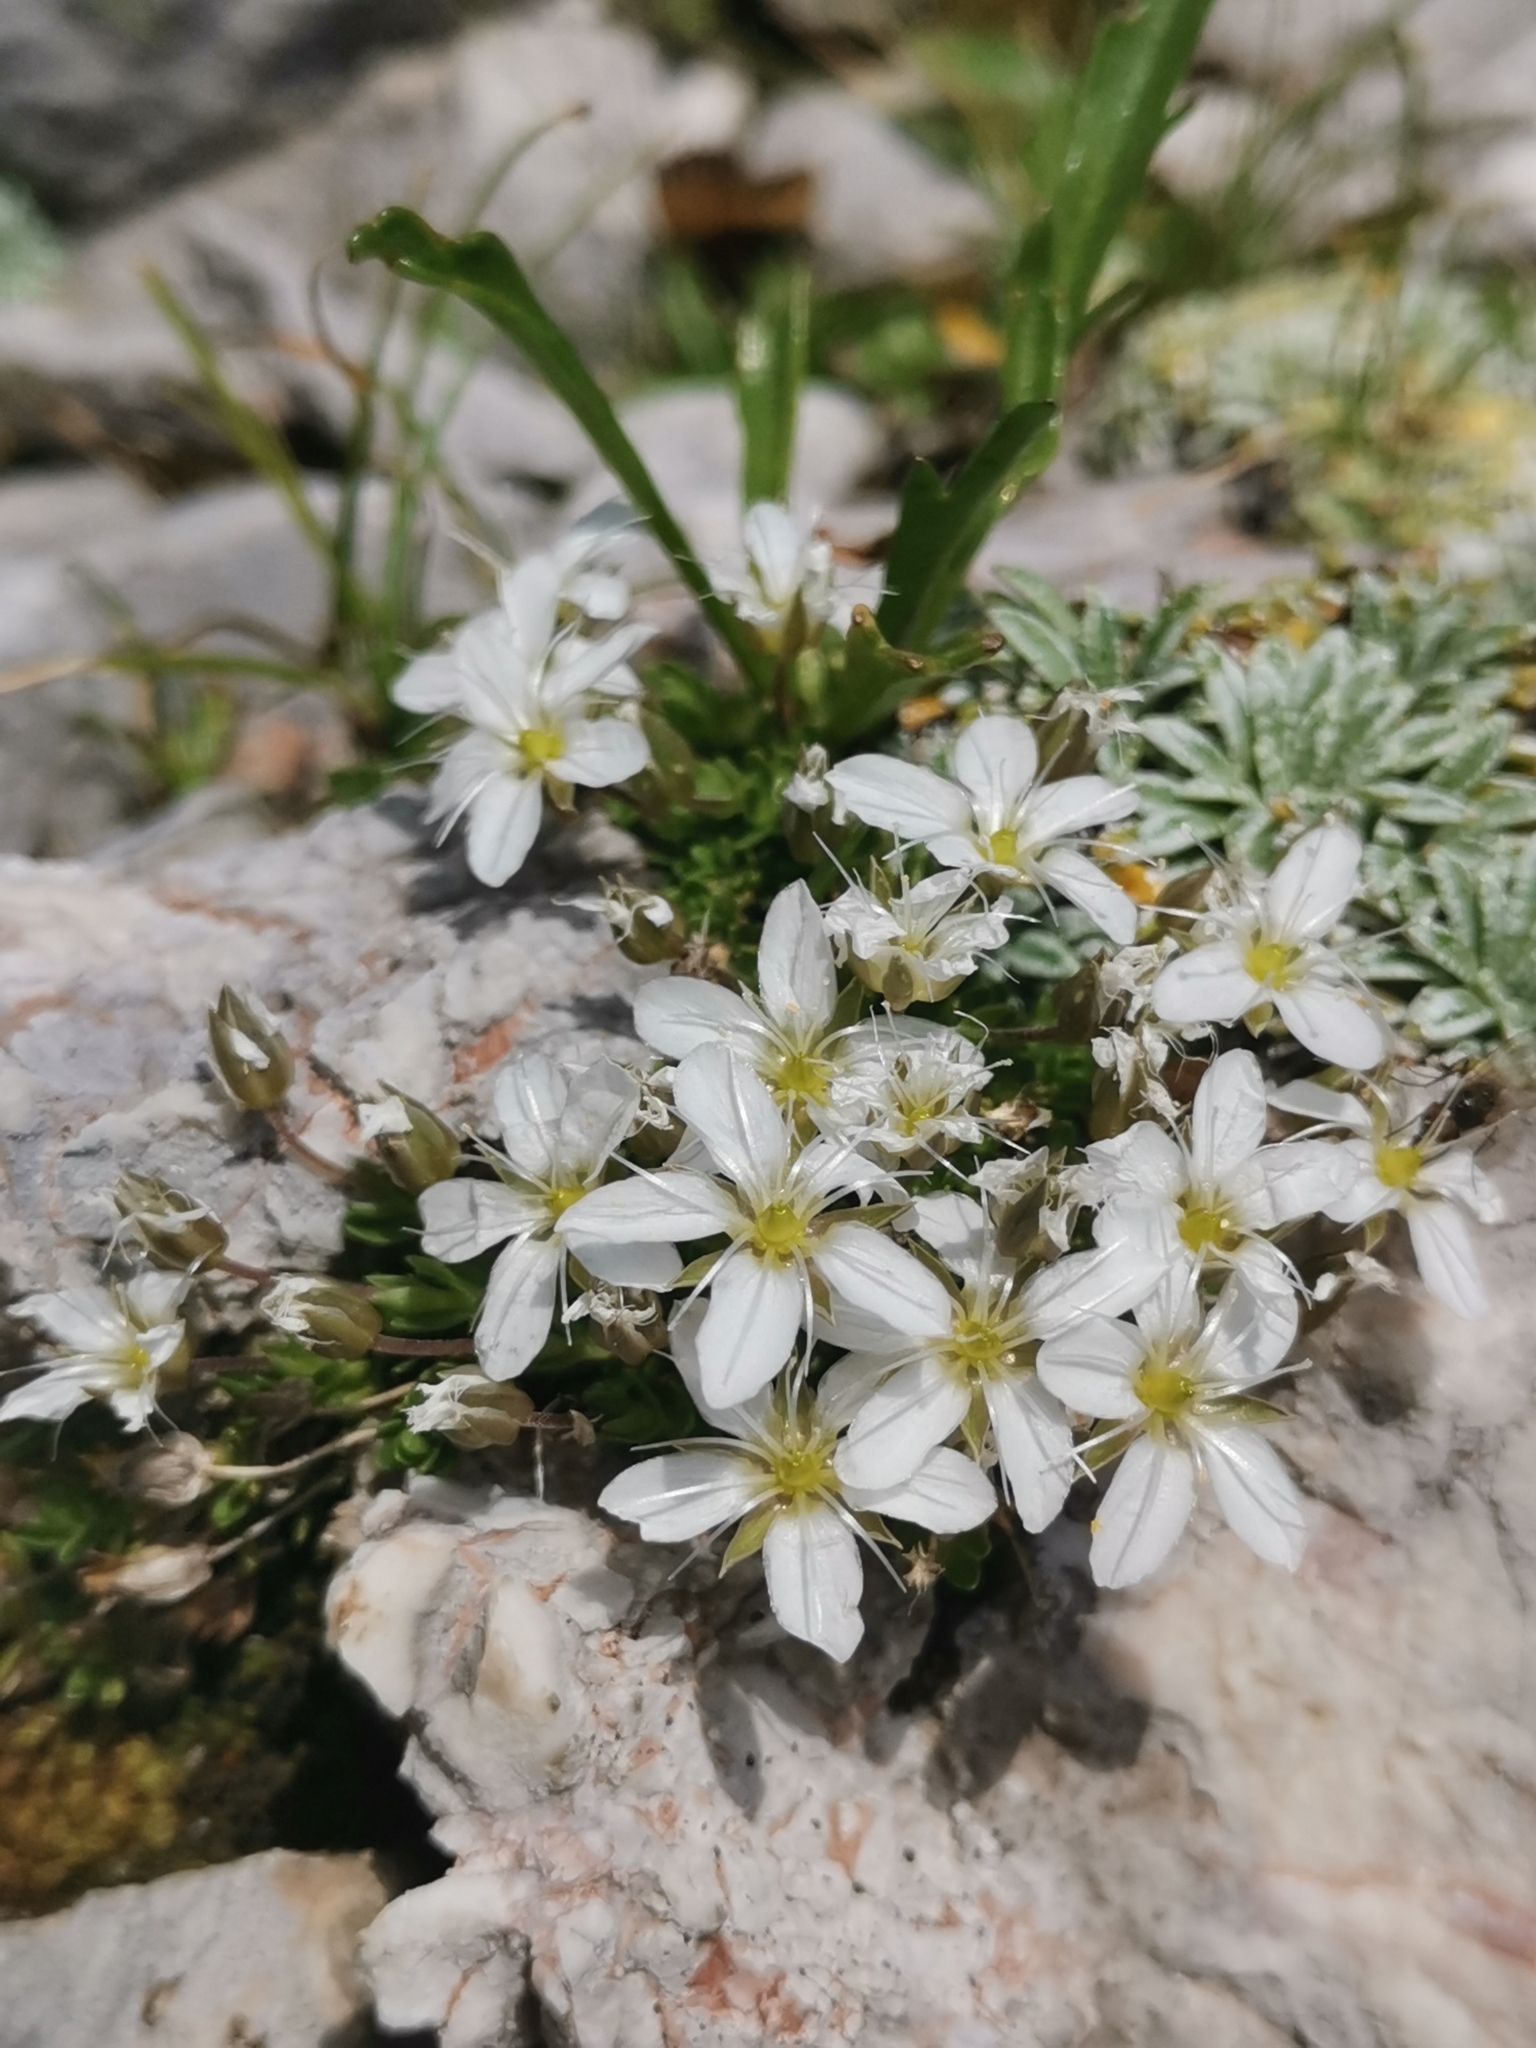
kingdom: Plantae
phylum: Tracheophyta
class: Magnoliopsida
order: Caryophyllales
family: Caryophyllaceae
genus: Arenaria
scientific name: Arenaria ciliata
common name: Fringed sandwort
